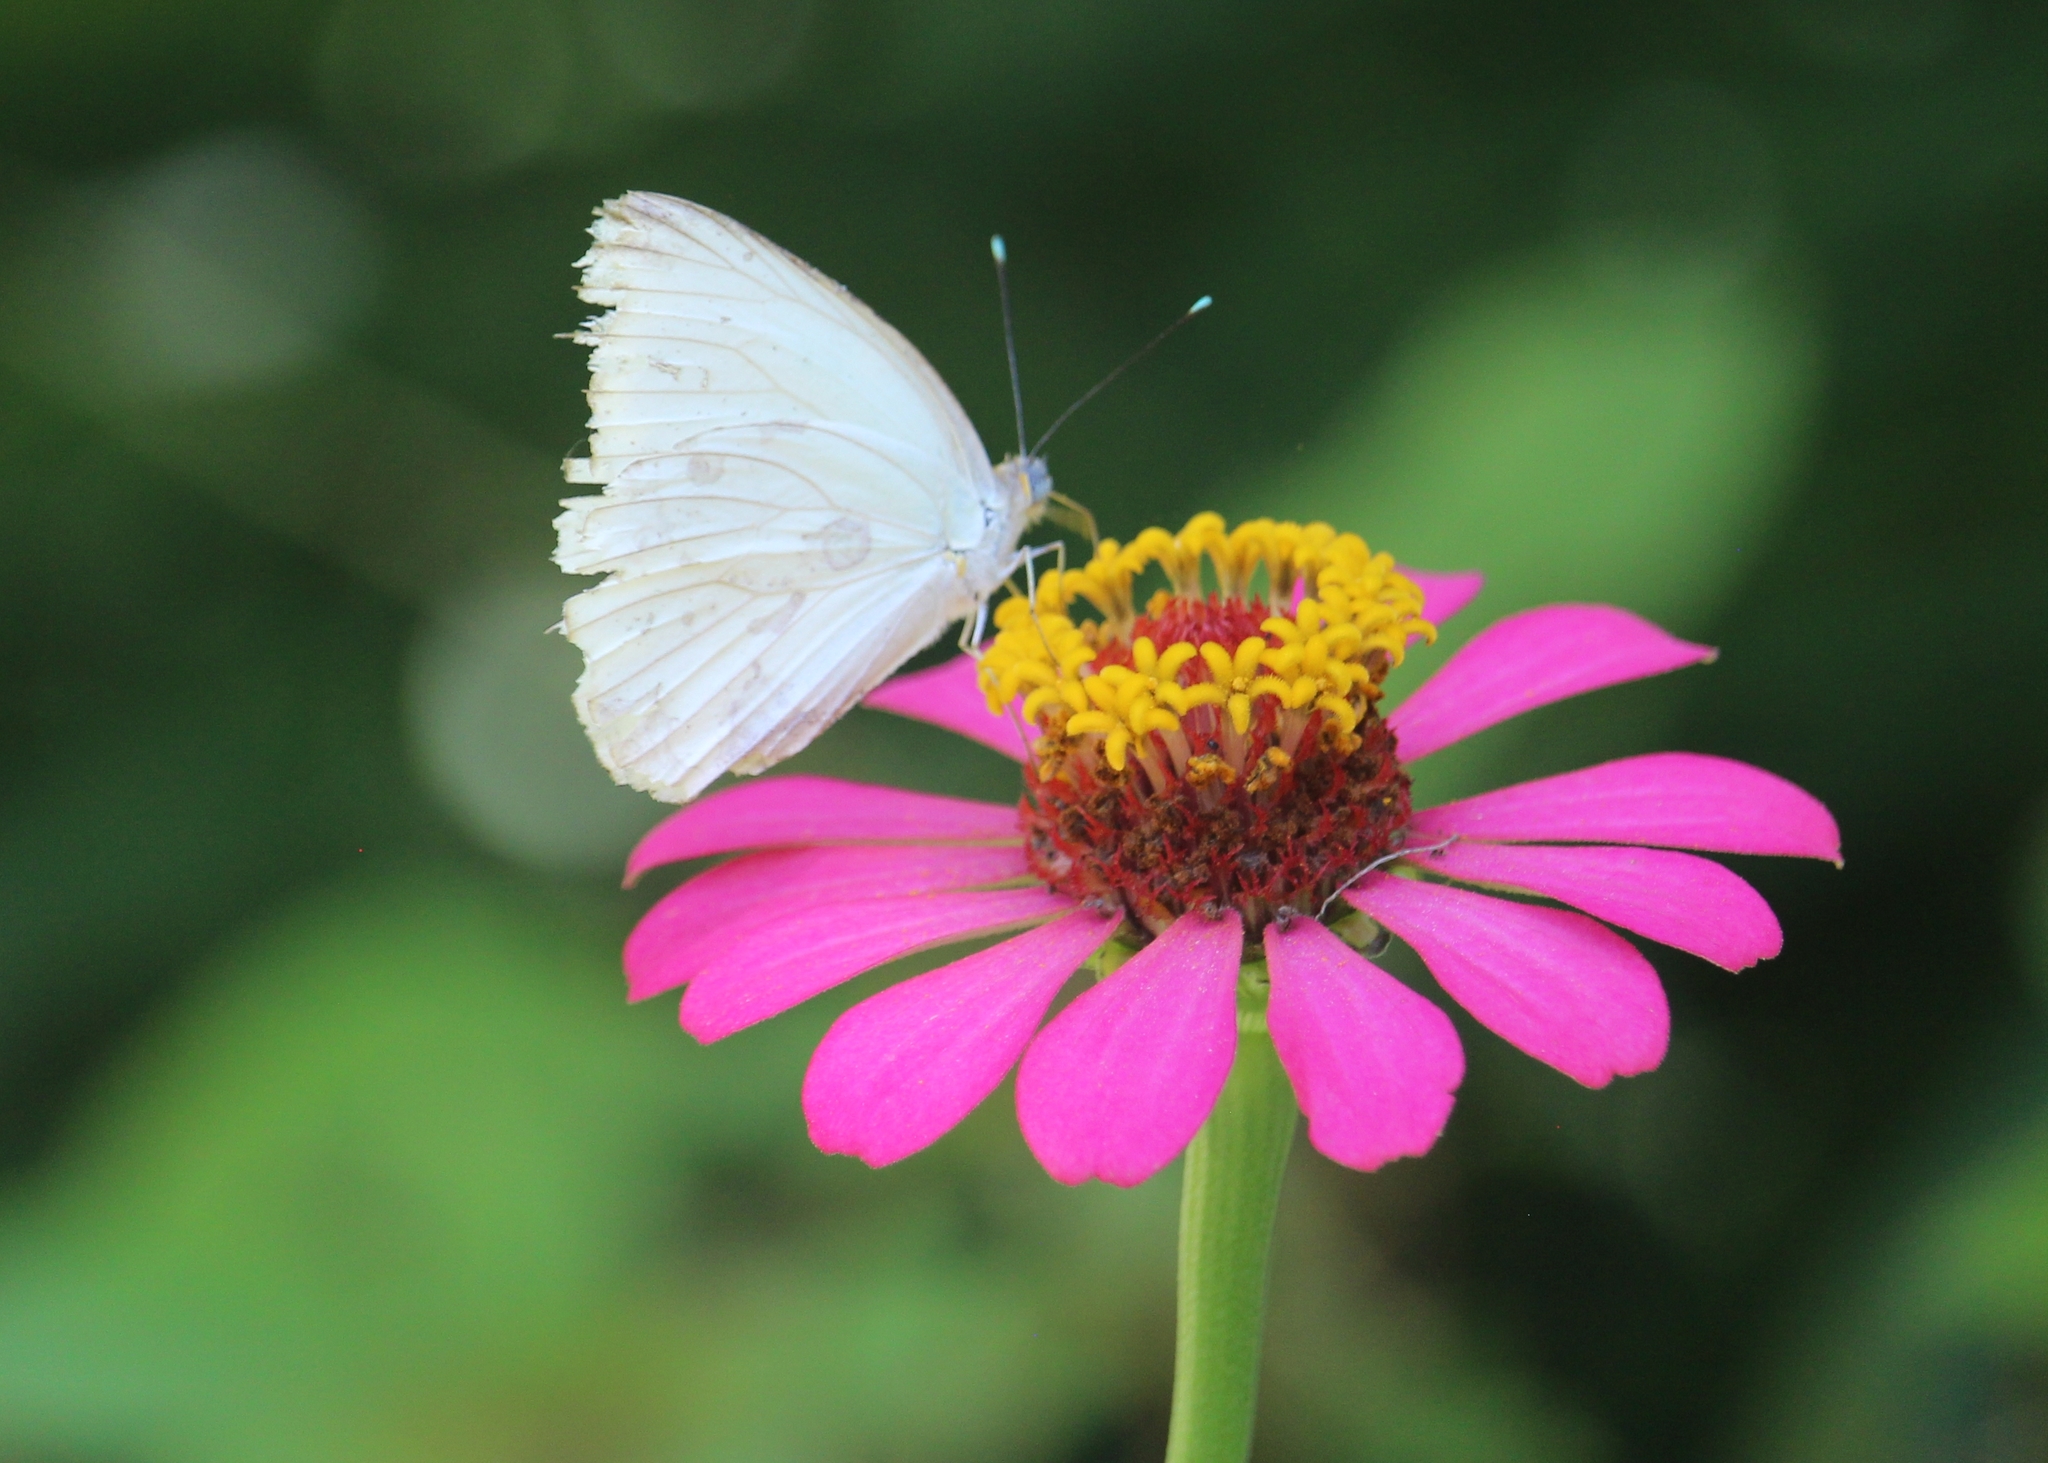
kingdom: Animalia
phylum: Arthropoda
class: Insecta
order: Lepidoptera
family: Pieridae
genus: Ascia
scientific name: Ascia monuste
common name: Great southern white
